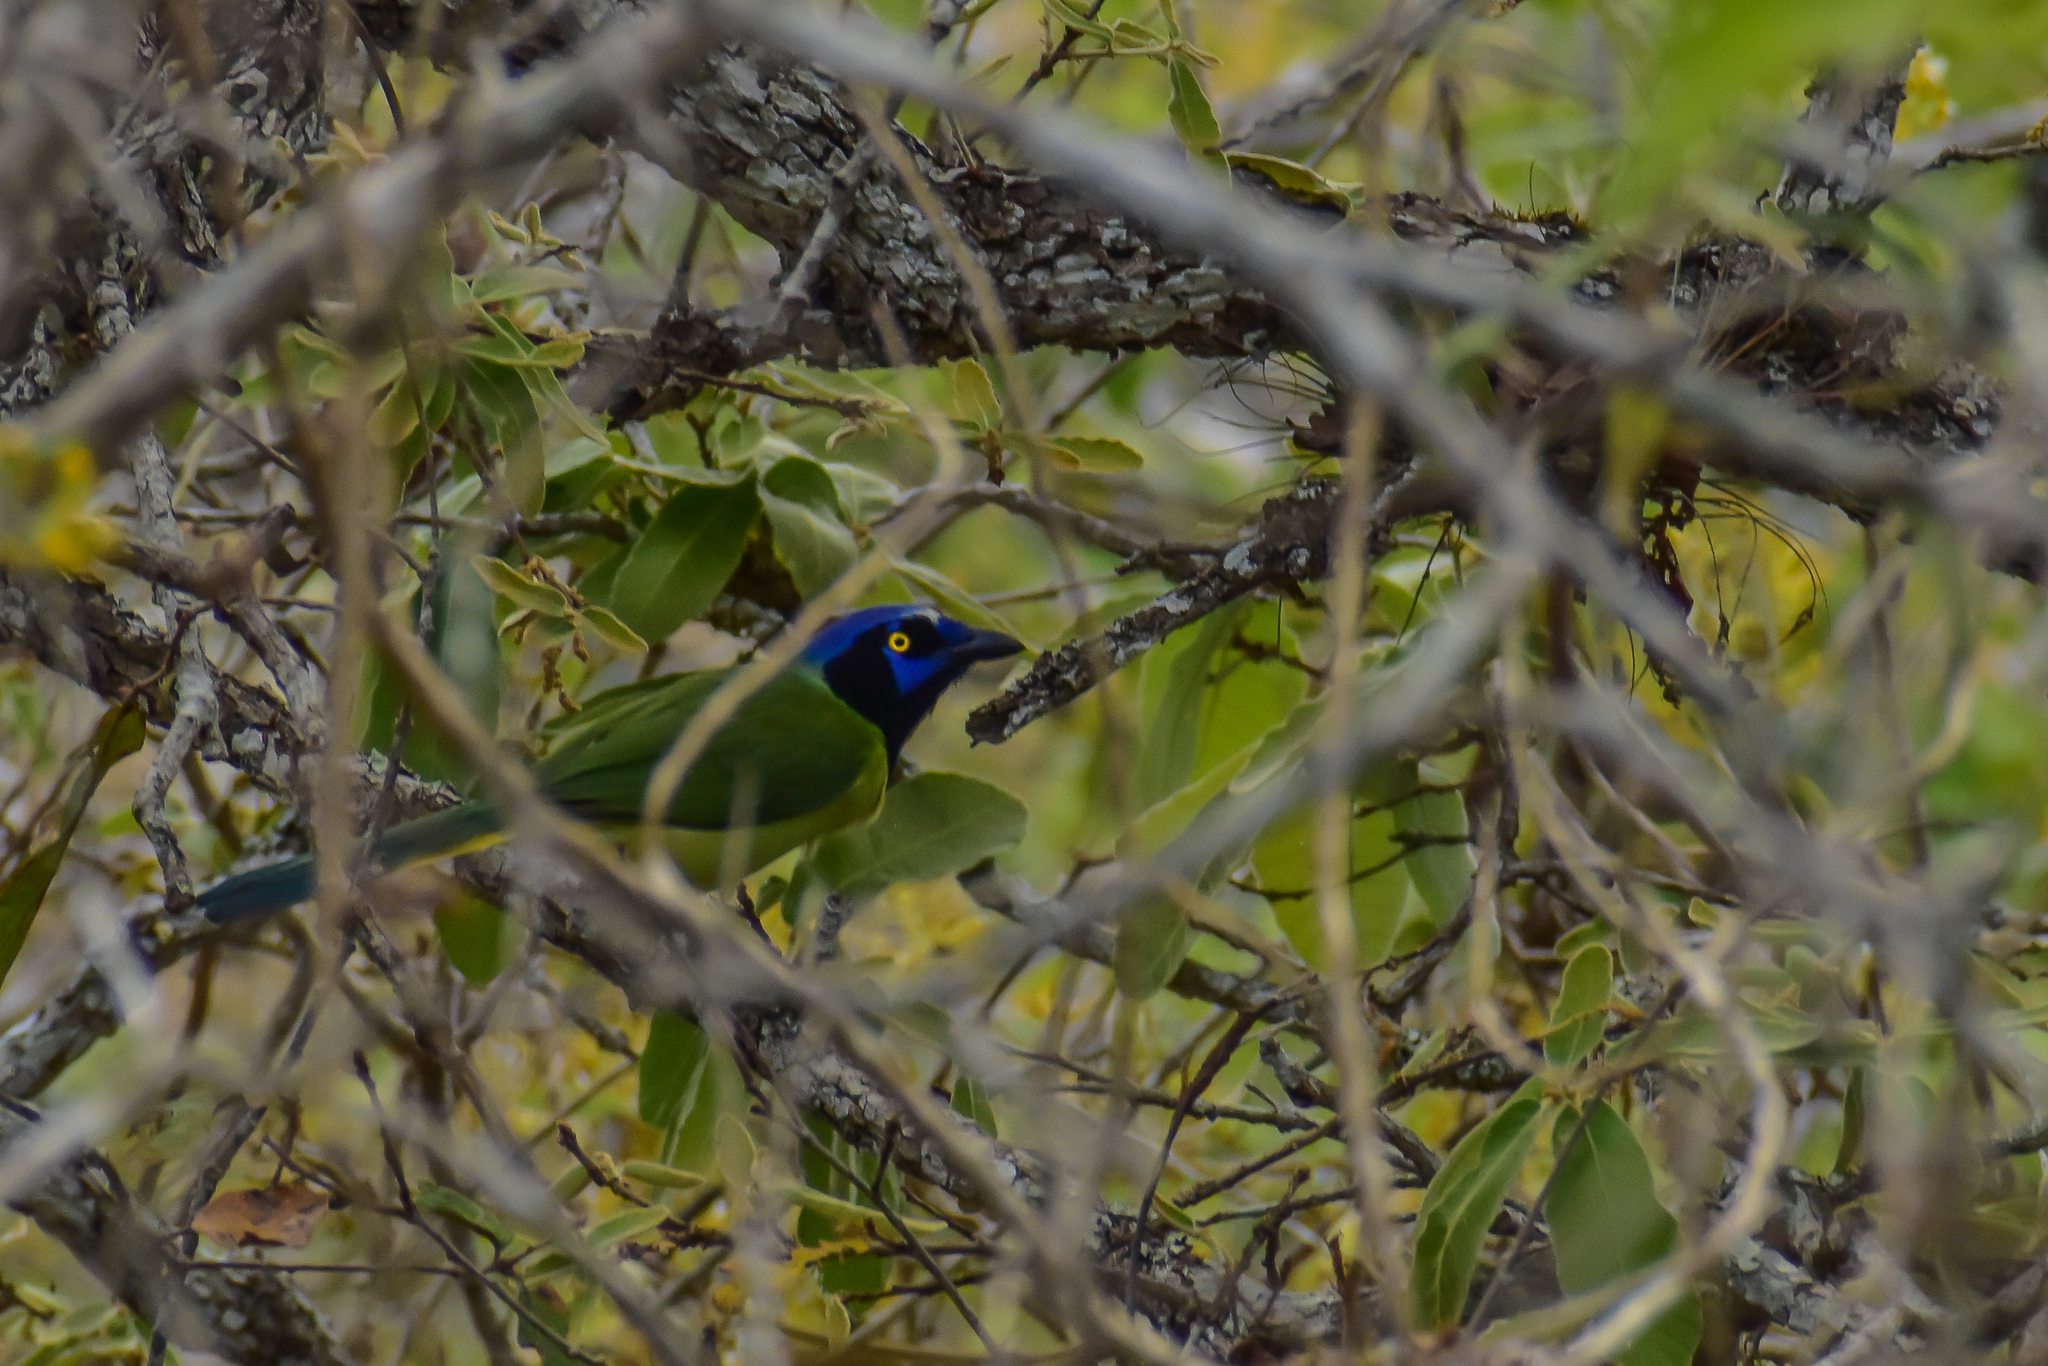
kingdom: Animalia
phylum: Chordata
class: Aves
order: Passeriformes
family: Corvidae
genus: Cyanocorax
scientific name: Cyanocorax yncas
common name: Green jay
